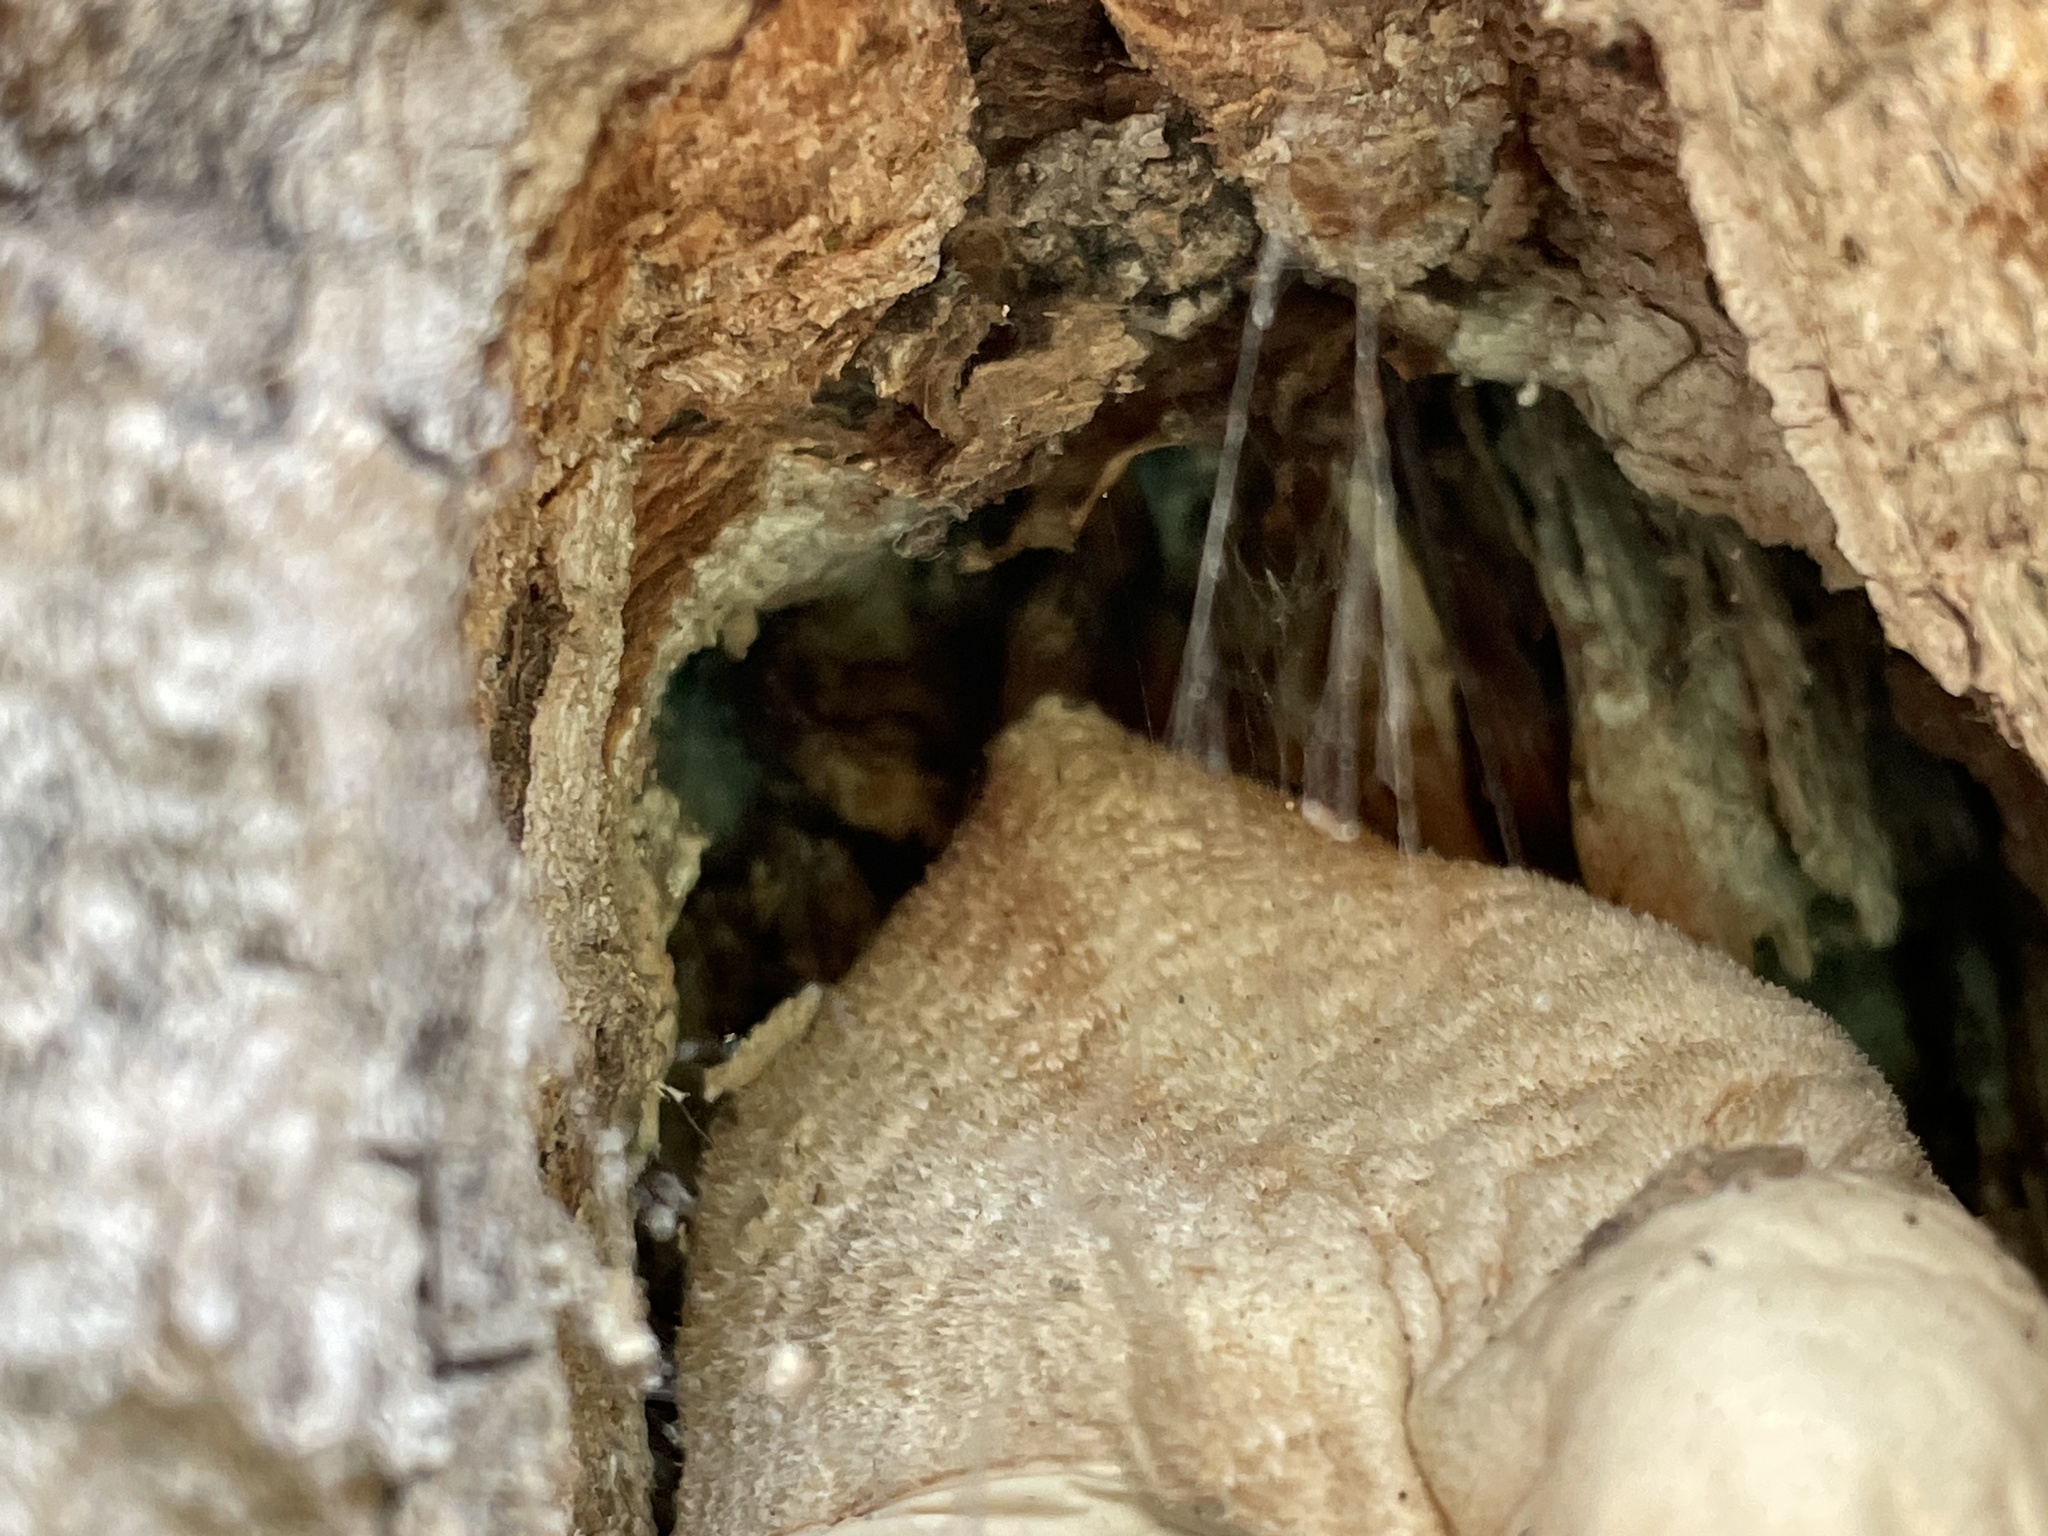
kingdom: Fungi
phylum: Basidiomycota
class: Agaricomycetes
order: Agaricales
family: Pluteaceae
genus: Volvariella
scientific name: Volvariella bombycina
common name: Silky rosegill
